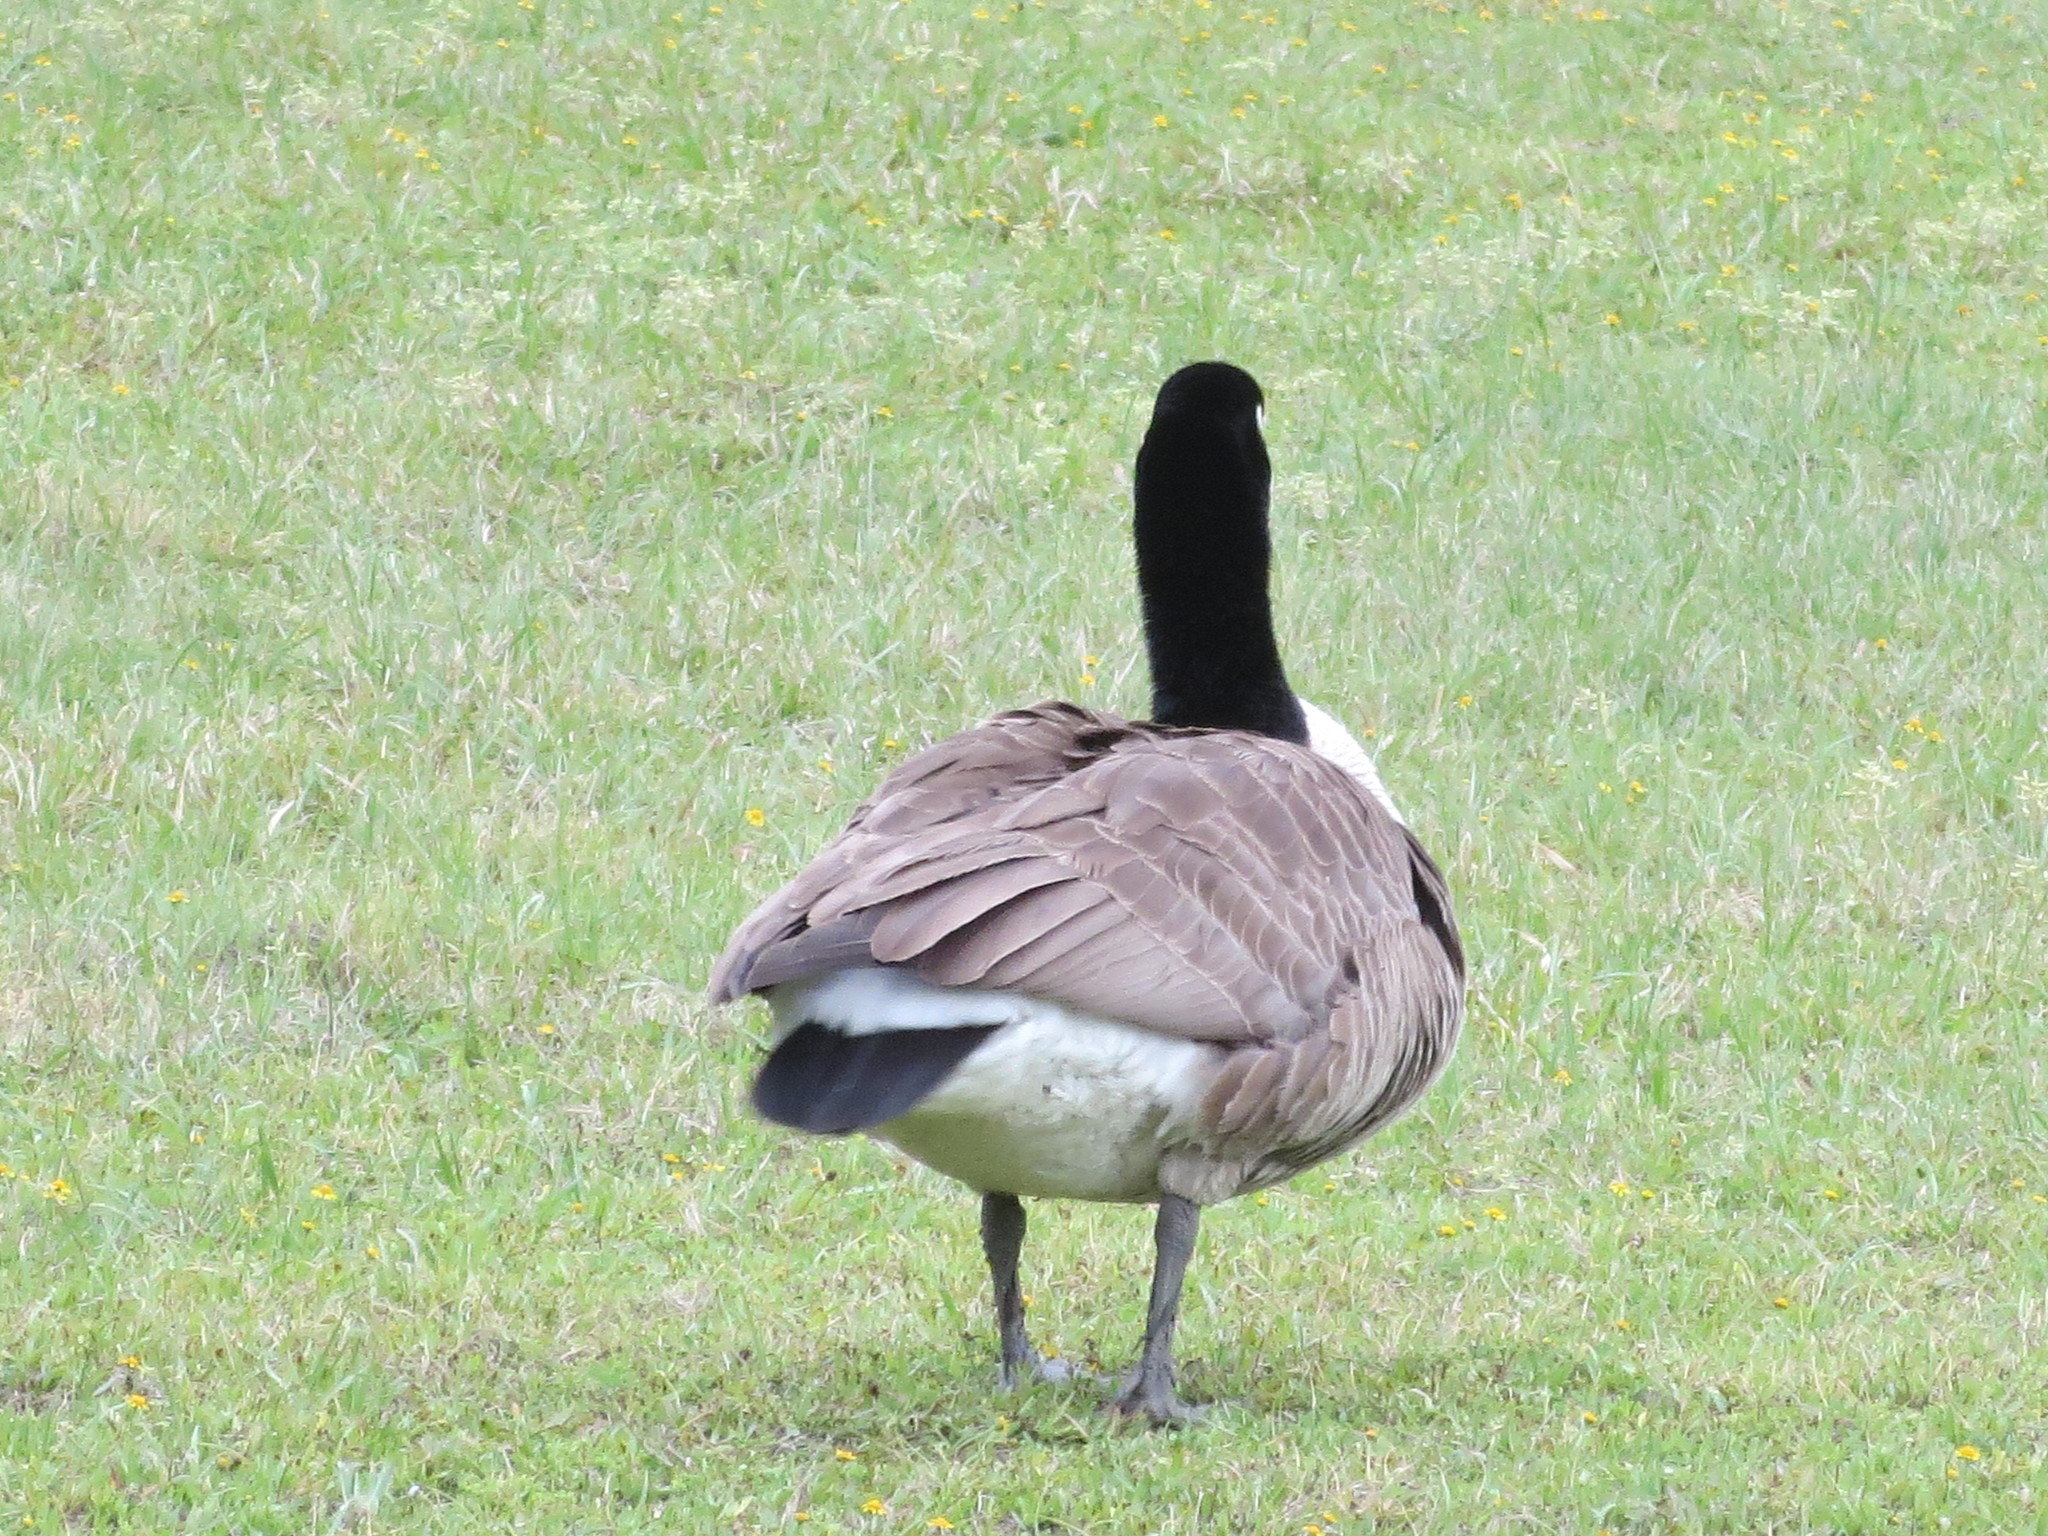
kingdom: Animalia
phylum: Chordata
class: Aves
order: Anseriformes
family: Anatidae
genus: Branta
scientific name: Branta canadensis
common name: Canada goose
